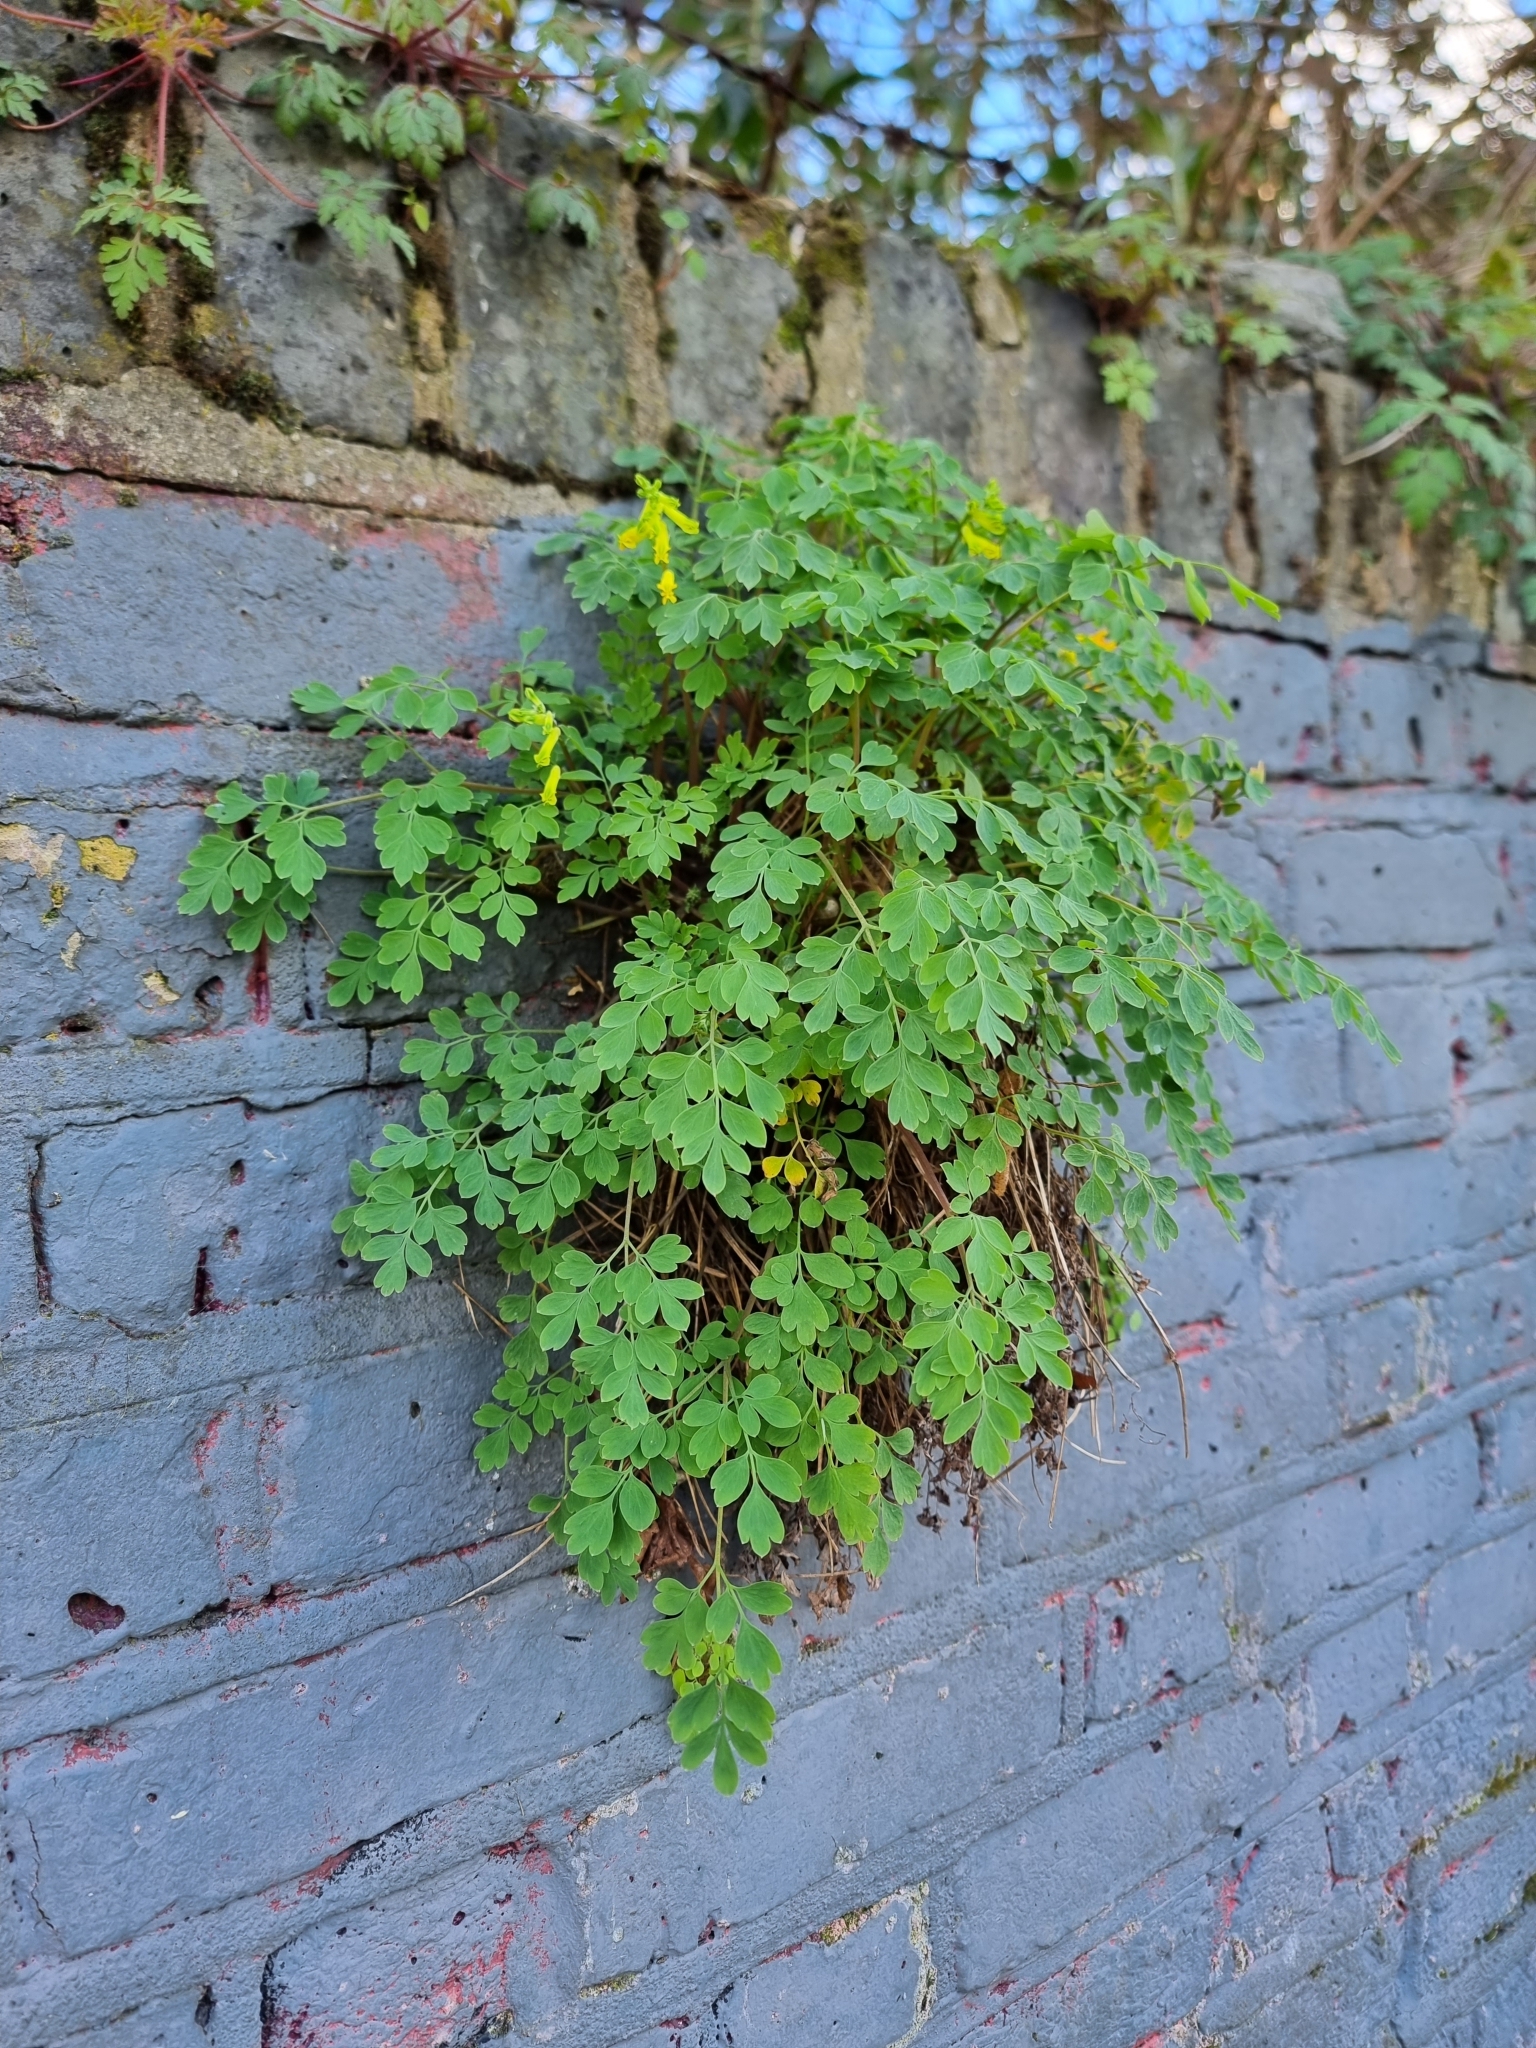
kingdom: Plantae
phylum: Tracheophyta
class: Magnoliopsida
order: Ranunculales
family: Papaveraceae
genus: Pseudofumaria
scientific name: Pseudofumaria lutea
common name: Yellow corydalis
